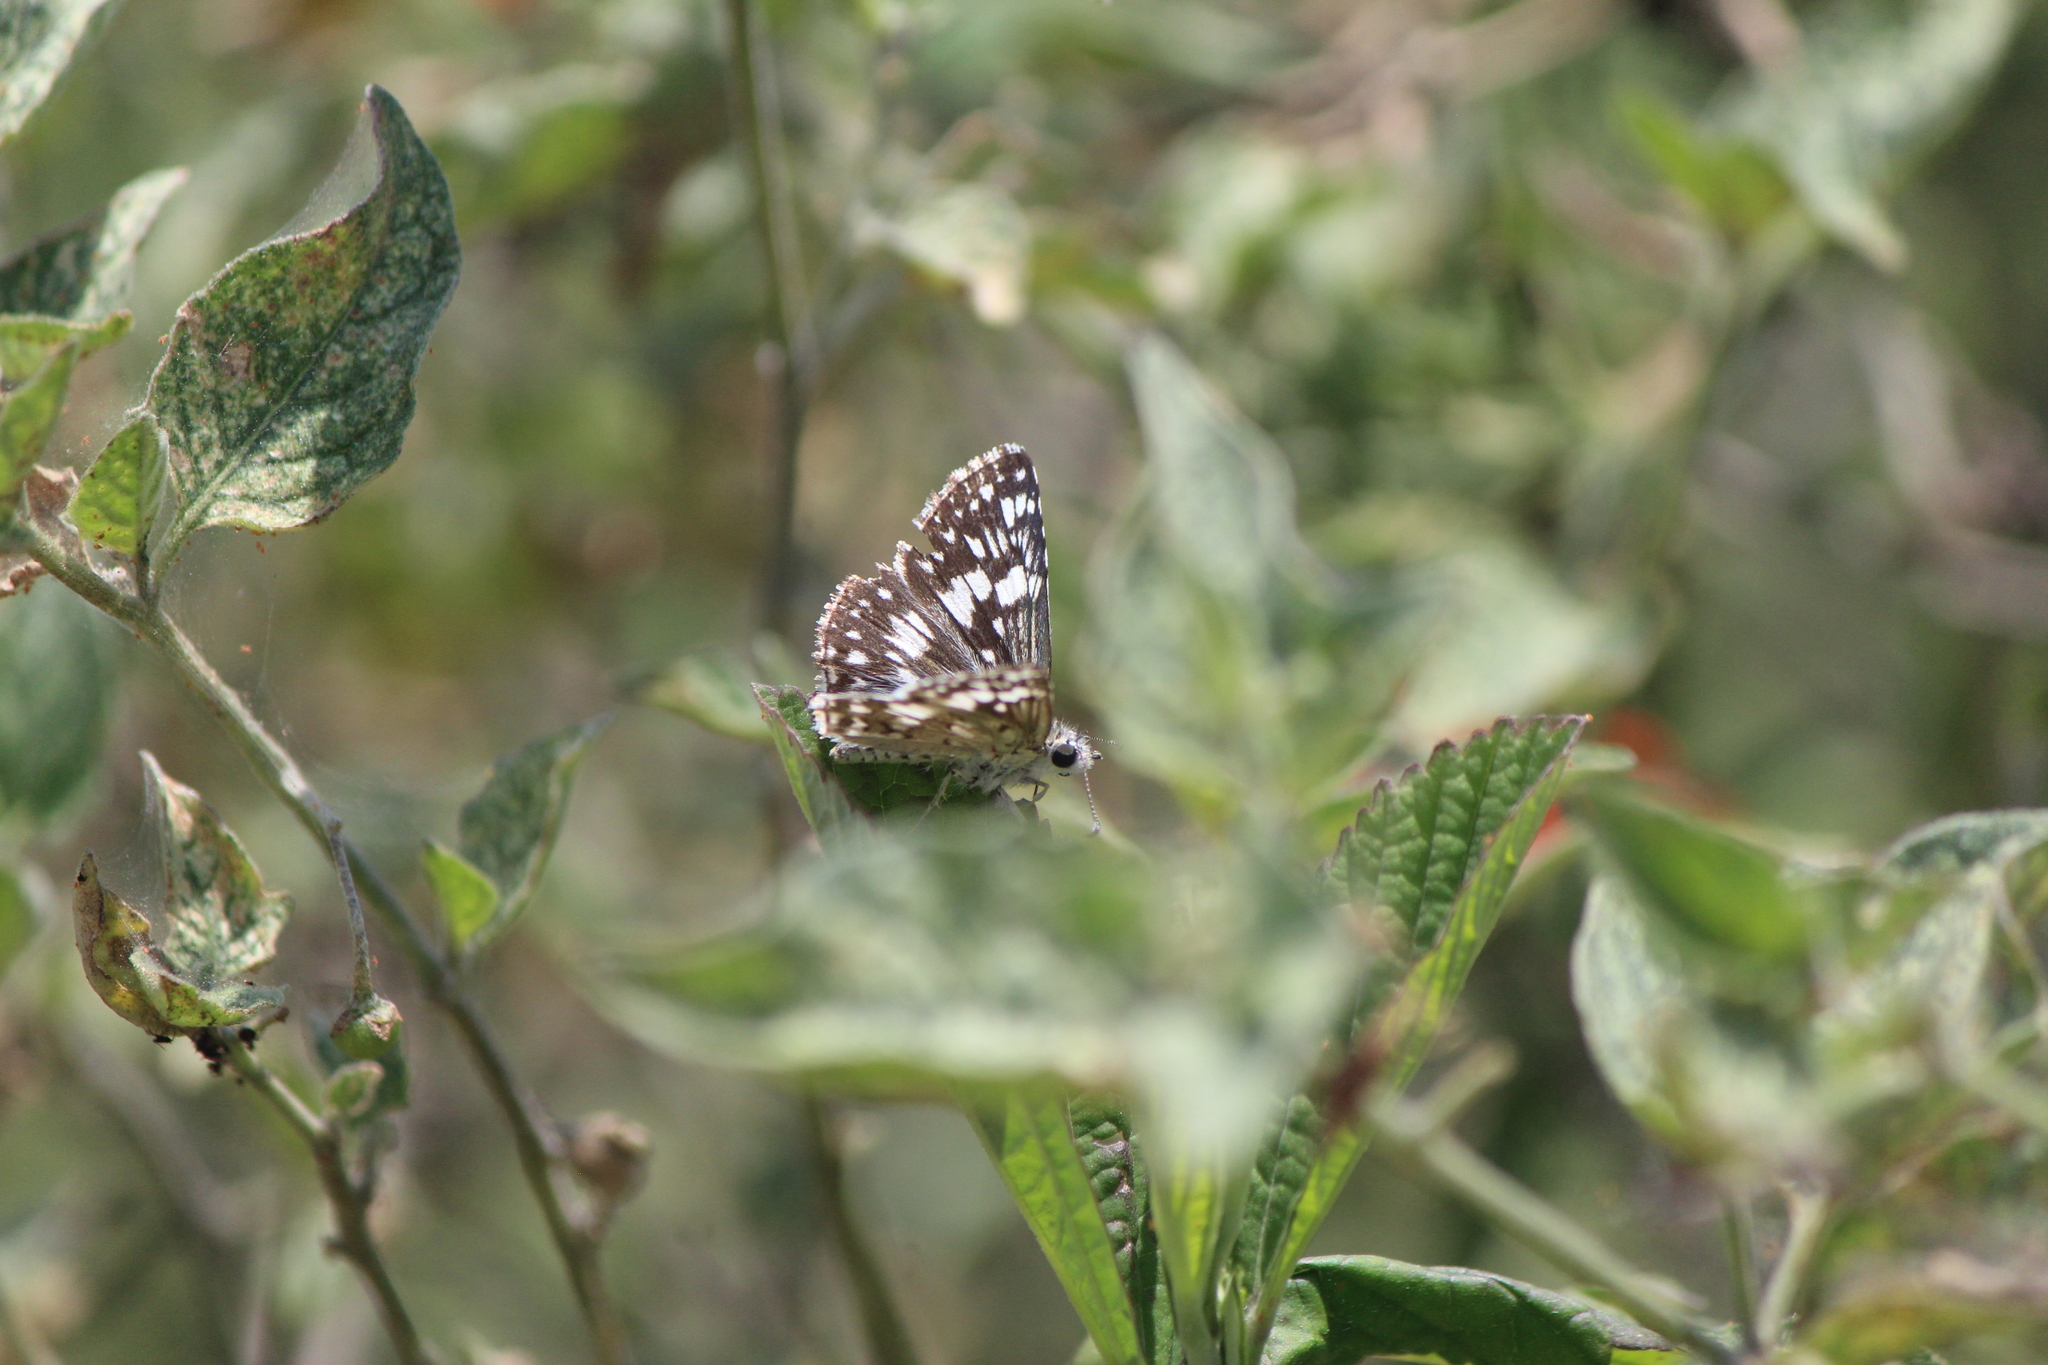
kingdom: Animalia
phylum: Arthropoda
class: Insecta
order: Lepidoptera
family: Hesperiidae
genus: Burnsius
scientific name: Burnsius communis
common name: Common checkered-skipper
